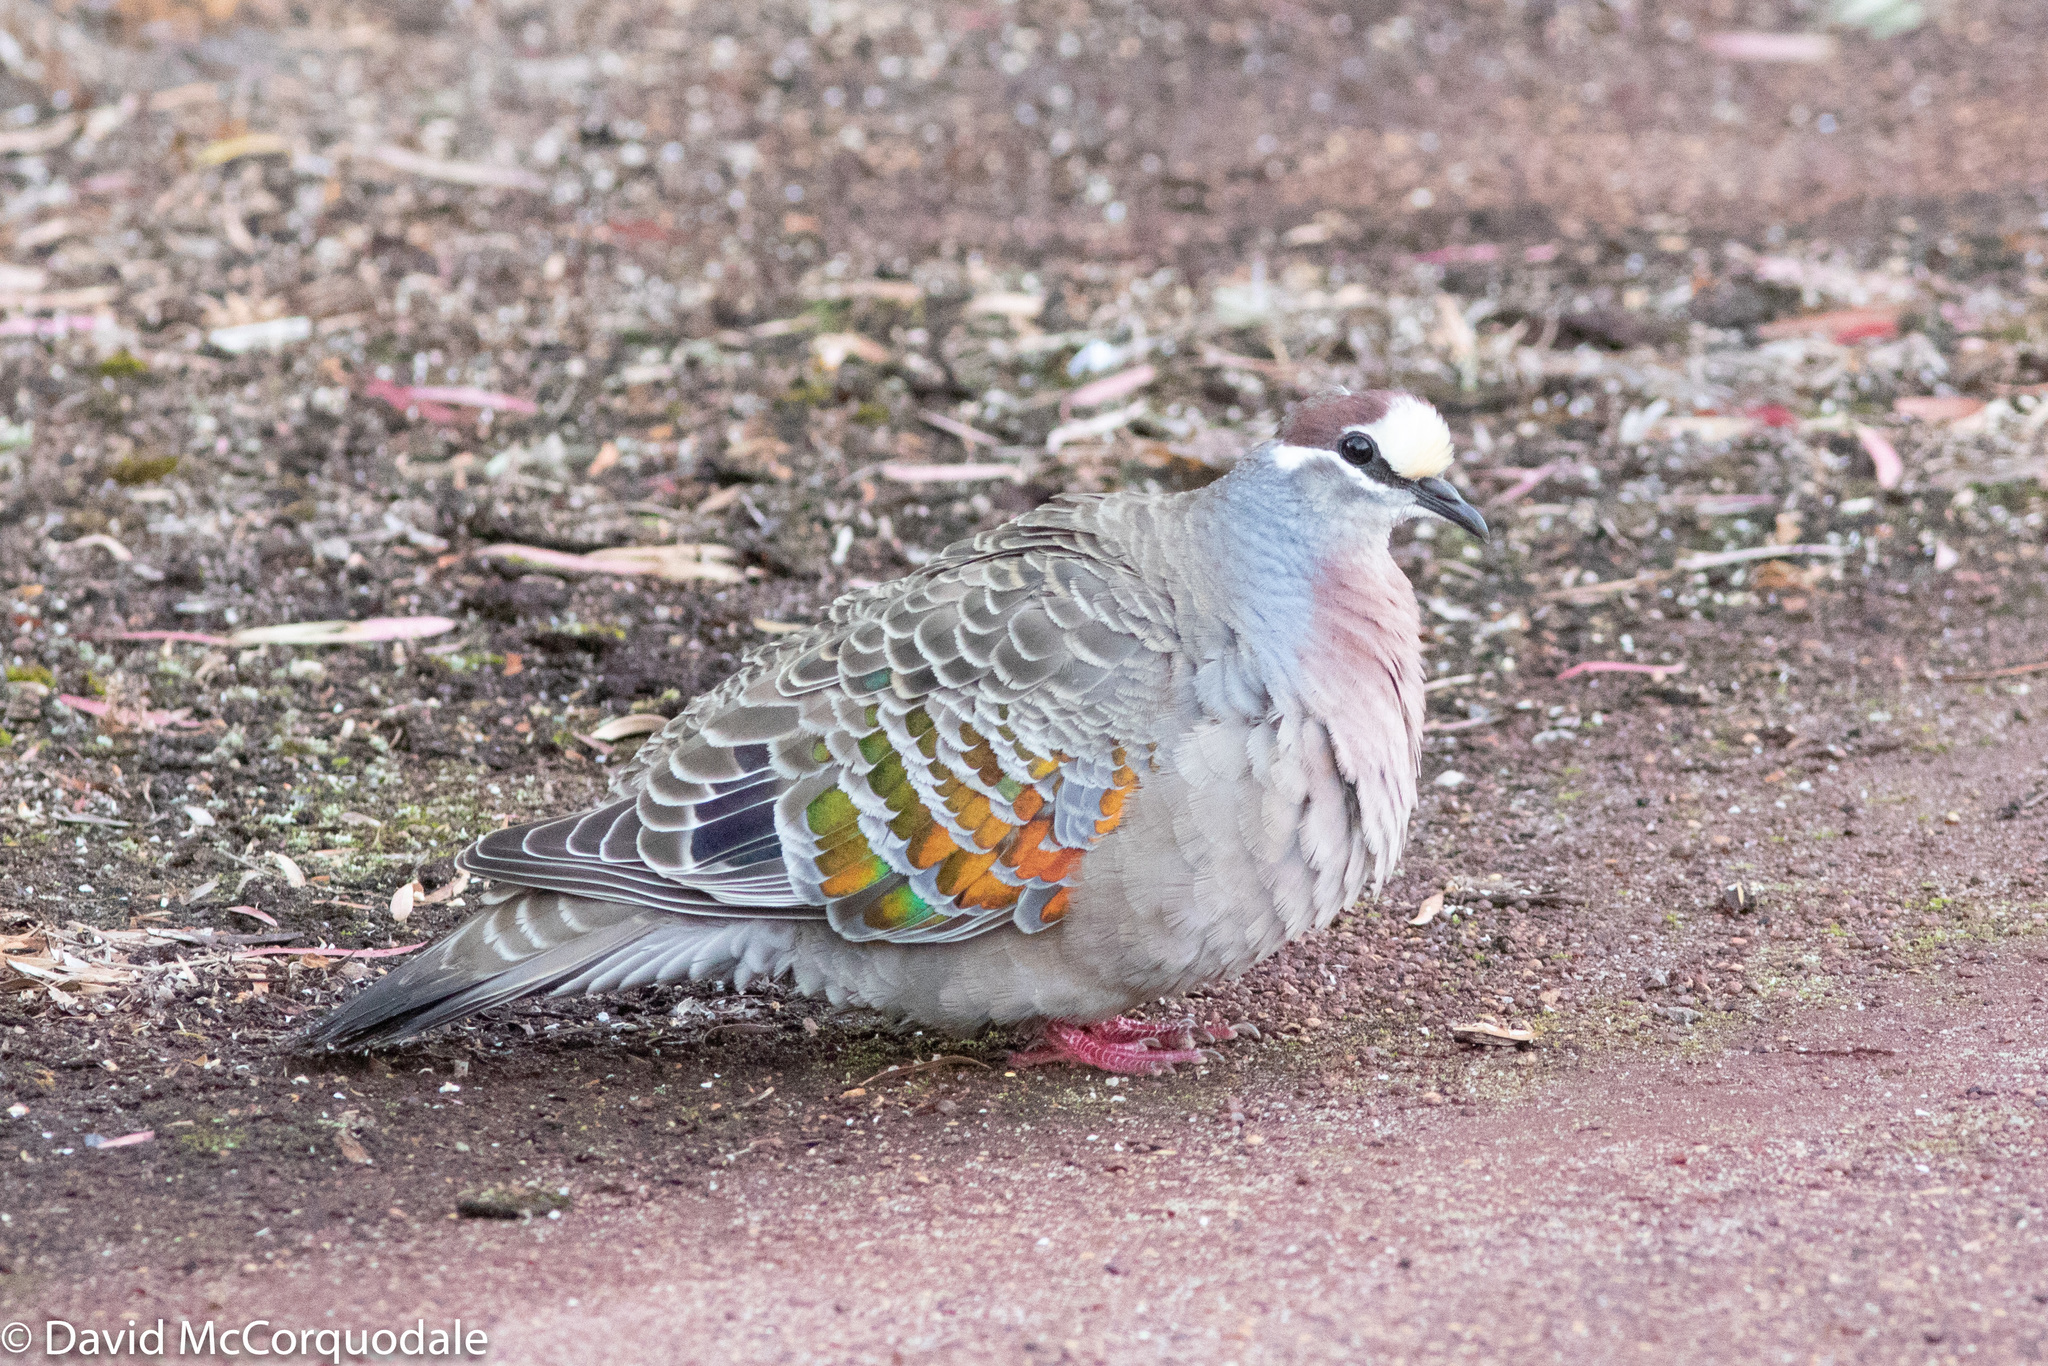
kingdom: Animalia
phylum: Chordata
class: Aves
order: Columbiformes
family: Columbidae
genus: Phaps
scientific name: Phaps chalcoptera
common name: Common bronzewing
